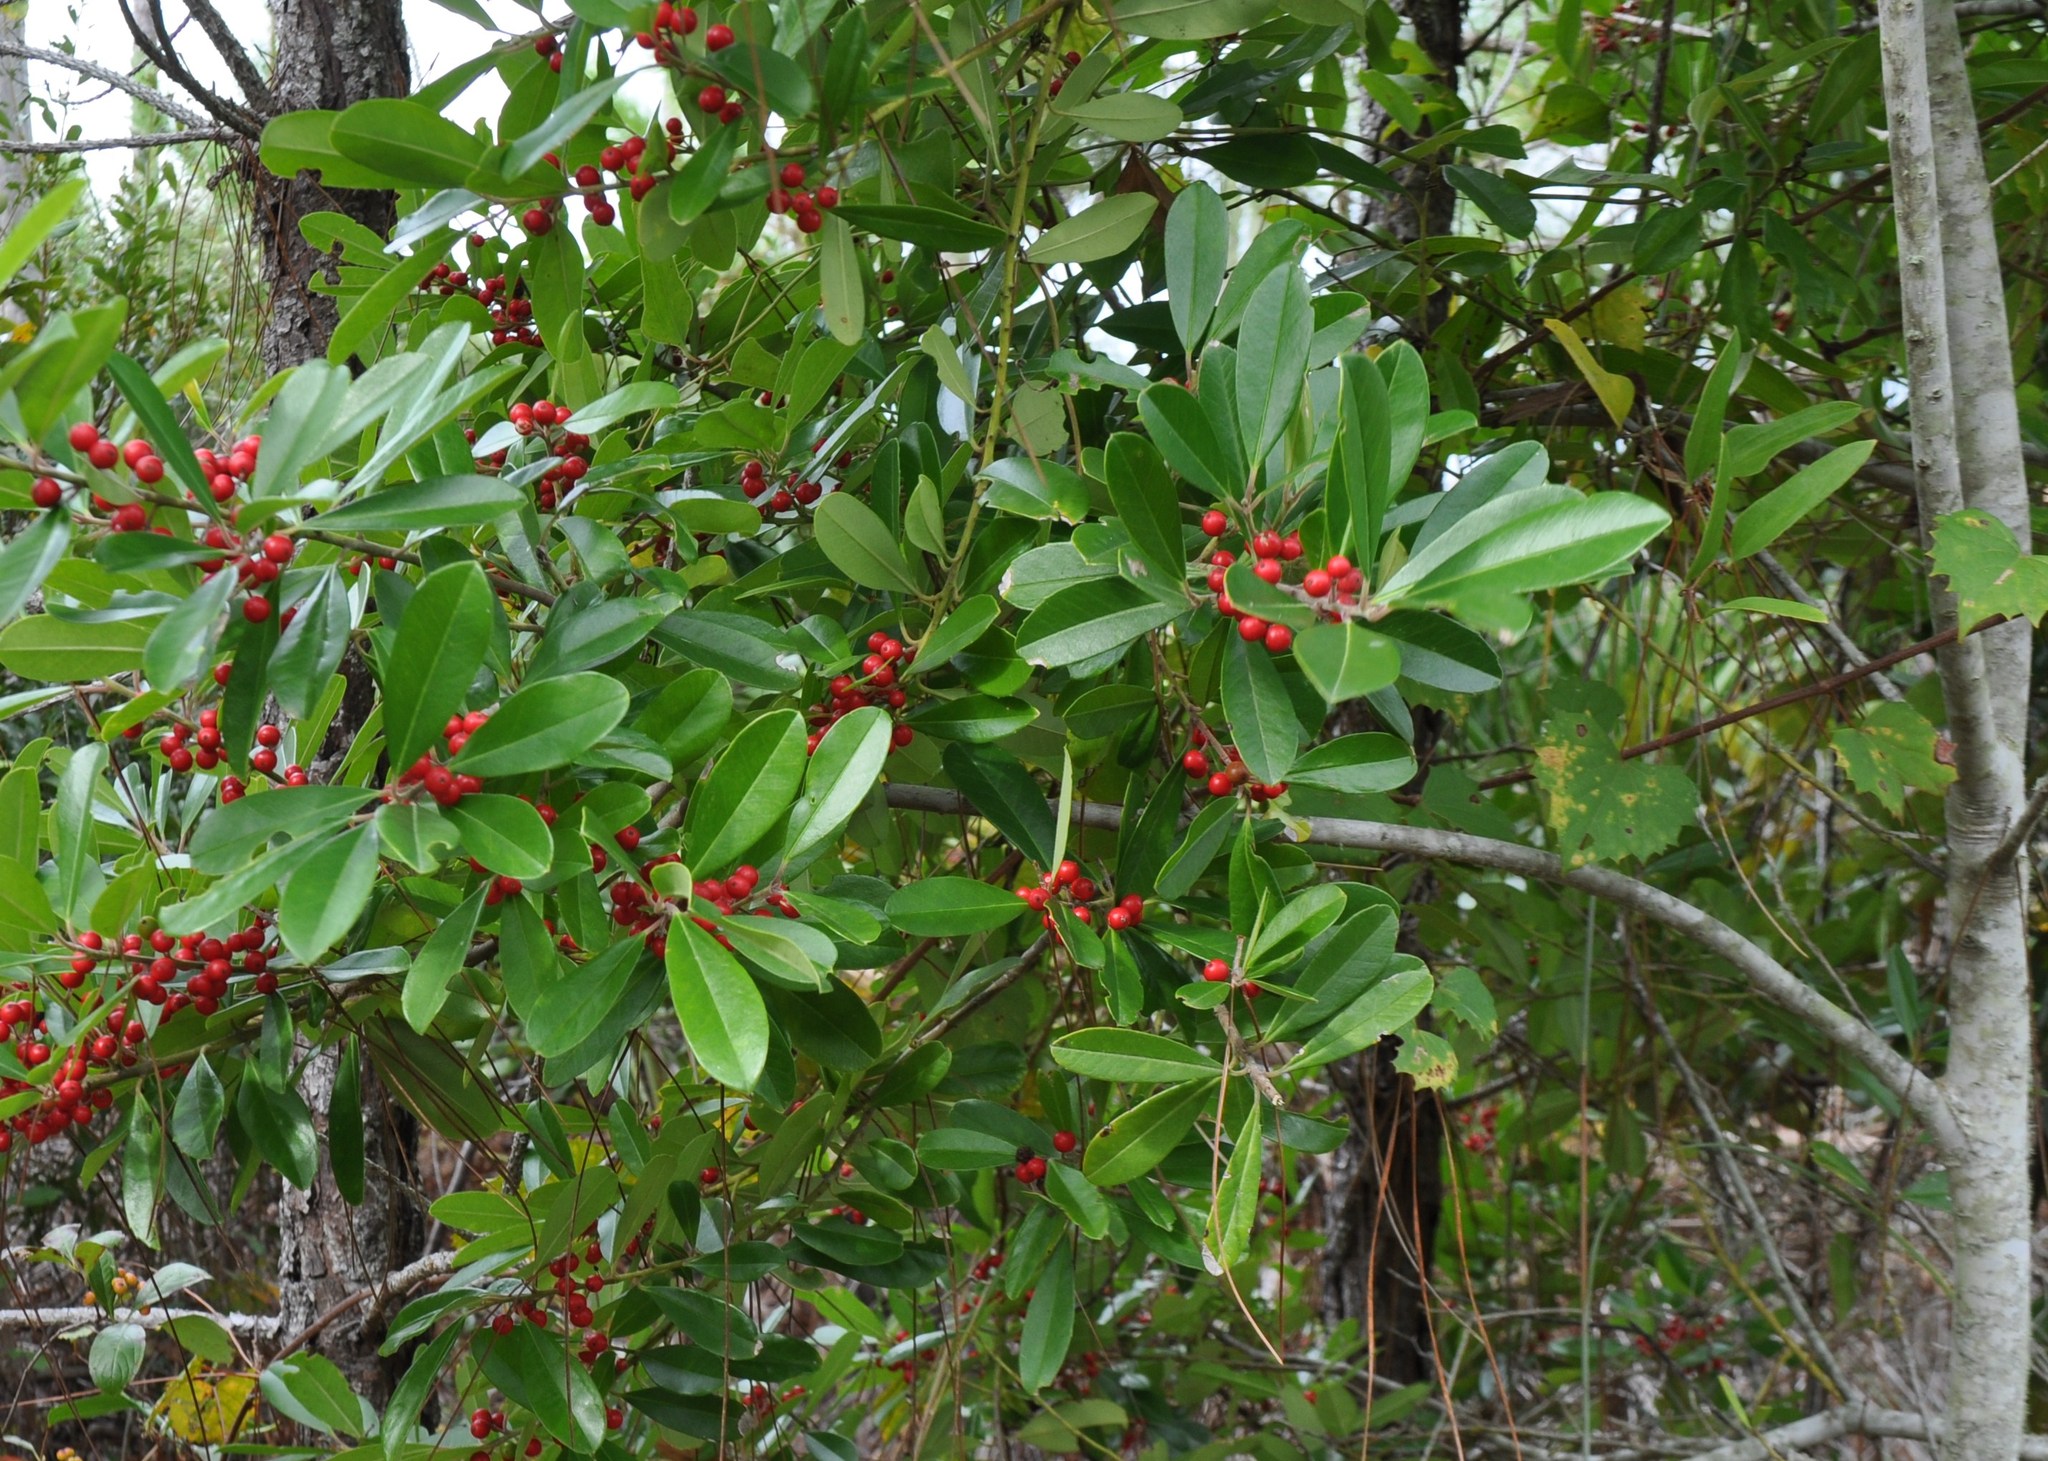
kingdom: Plantae
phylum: Tracheophyta
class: Magnoliopsida
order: Aquifoliales
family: Aquifoliaceae
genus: Ilex
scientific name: Ilex cassine
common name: Dahoon
